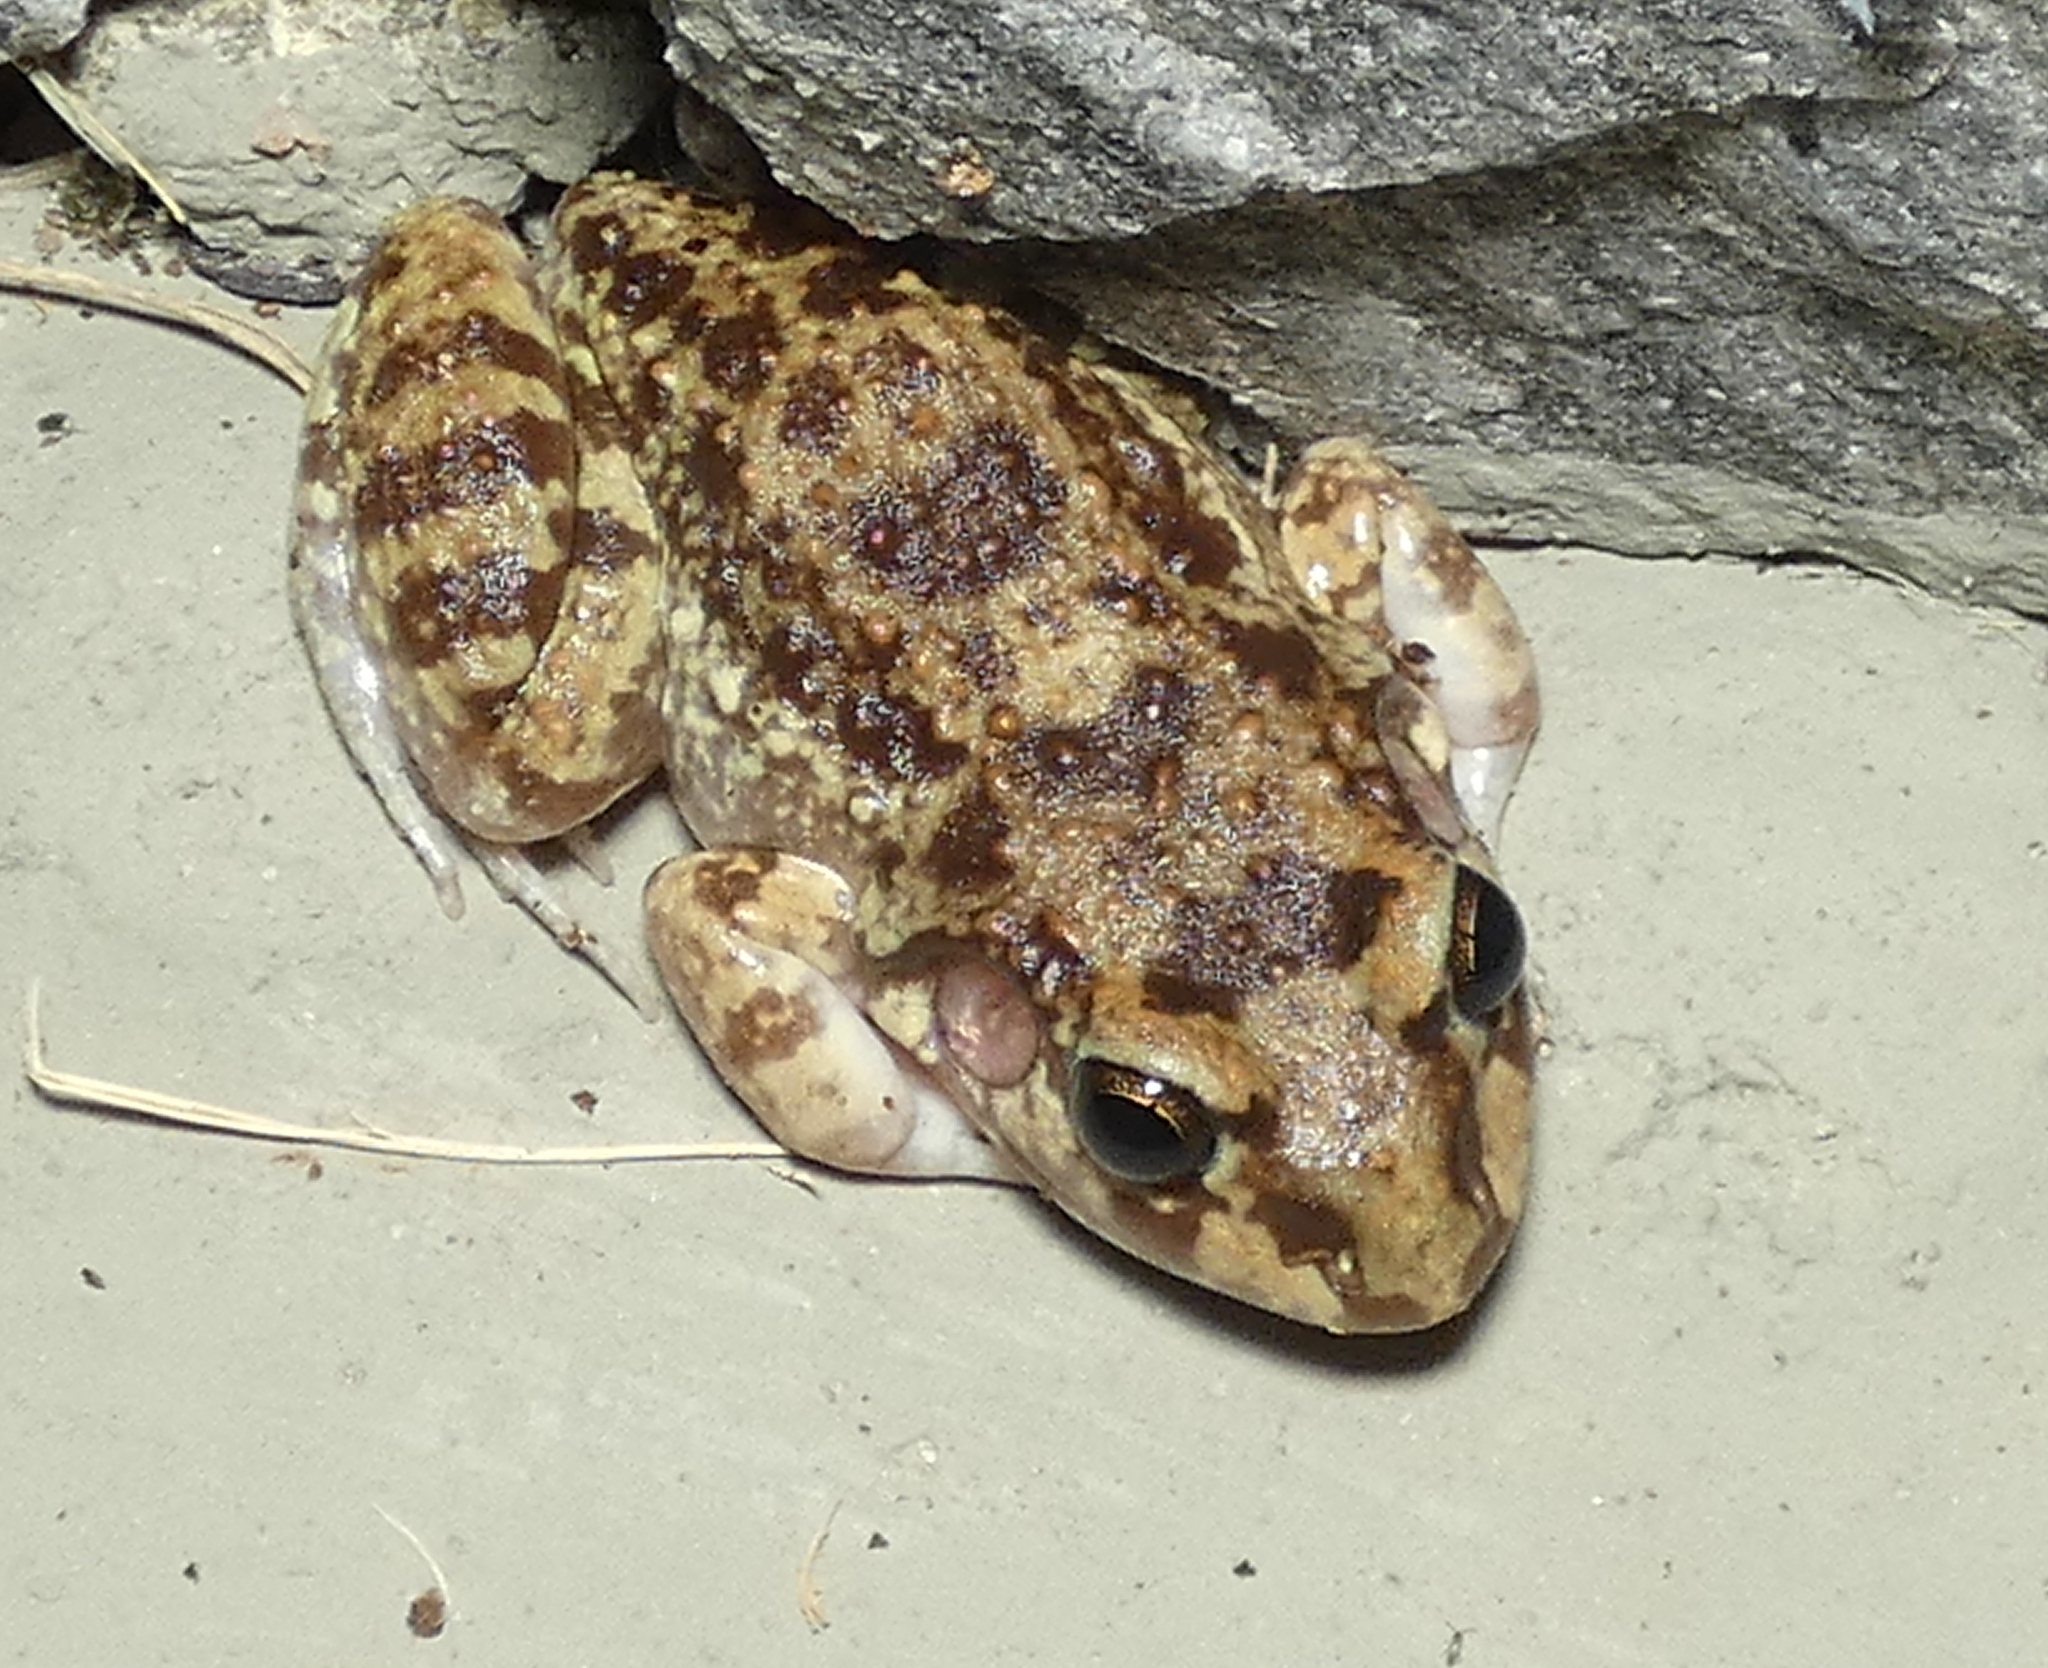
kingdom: Animalia
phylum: Chordata
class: Amphibia
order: Anura
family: Leptodactylidae
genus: Leptodactylus
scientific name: Leptodactylus troglodytes
